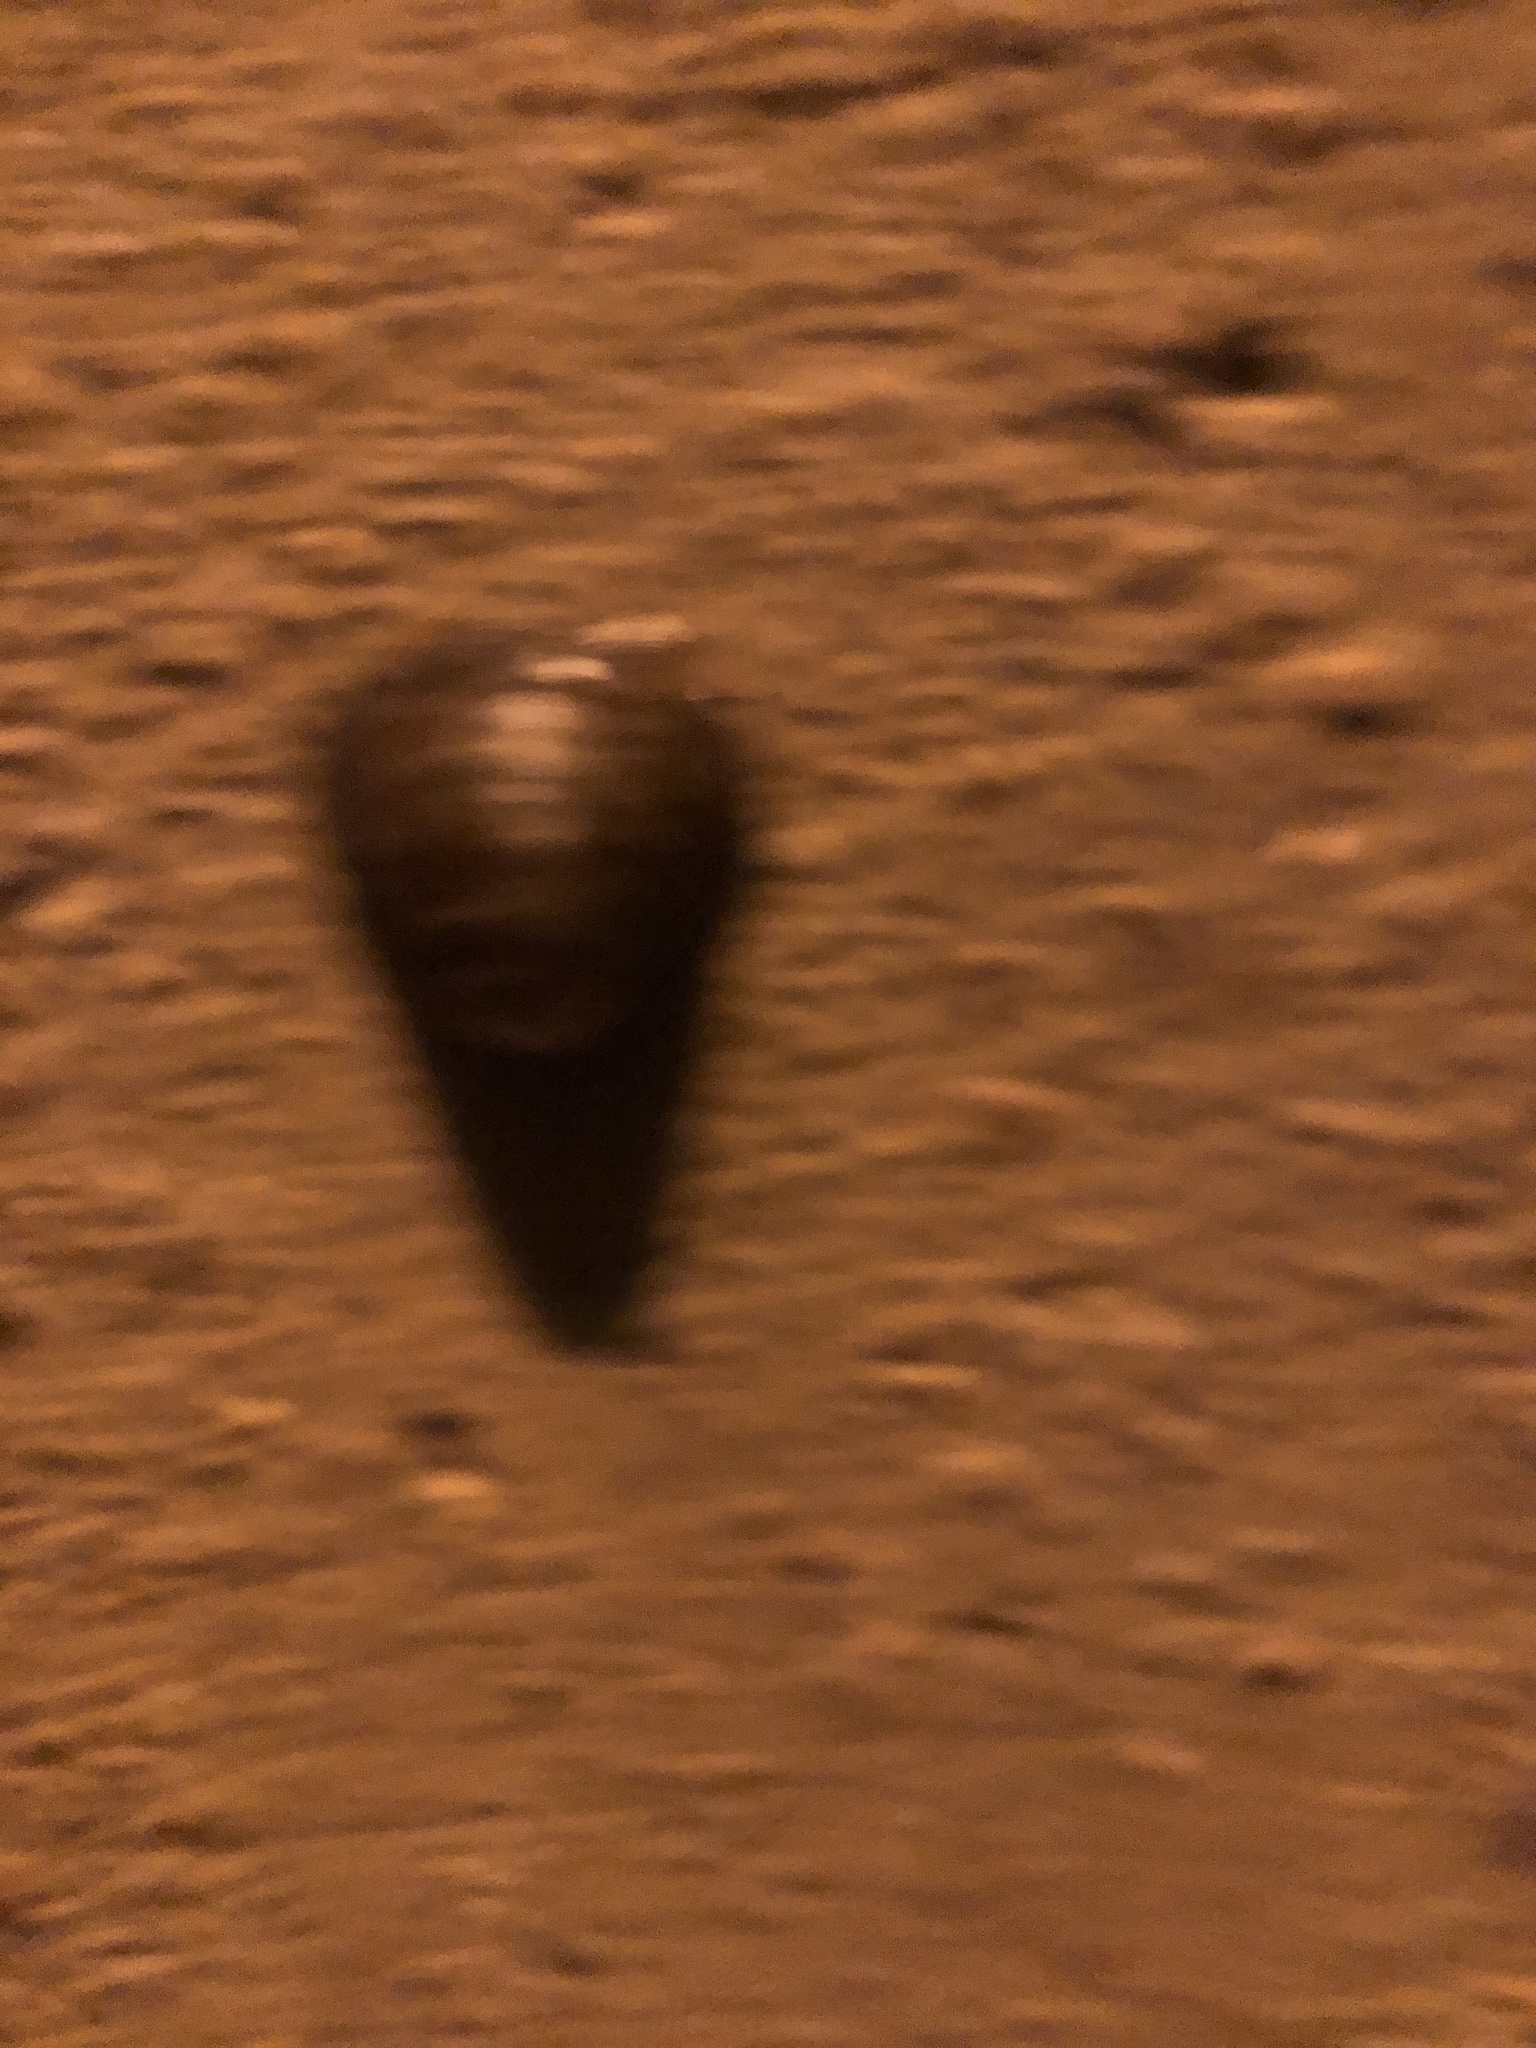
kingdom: Animalia
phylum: Mollusca
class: Bivalvia
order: Venerida
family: Cyrenidae
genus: Corbicula
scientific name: Corbicula fluminea
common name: Asian clam
